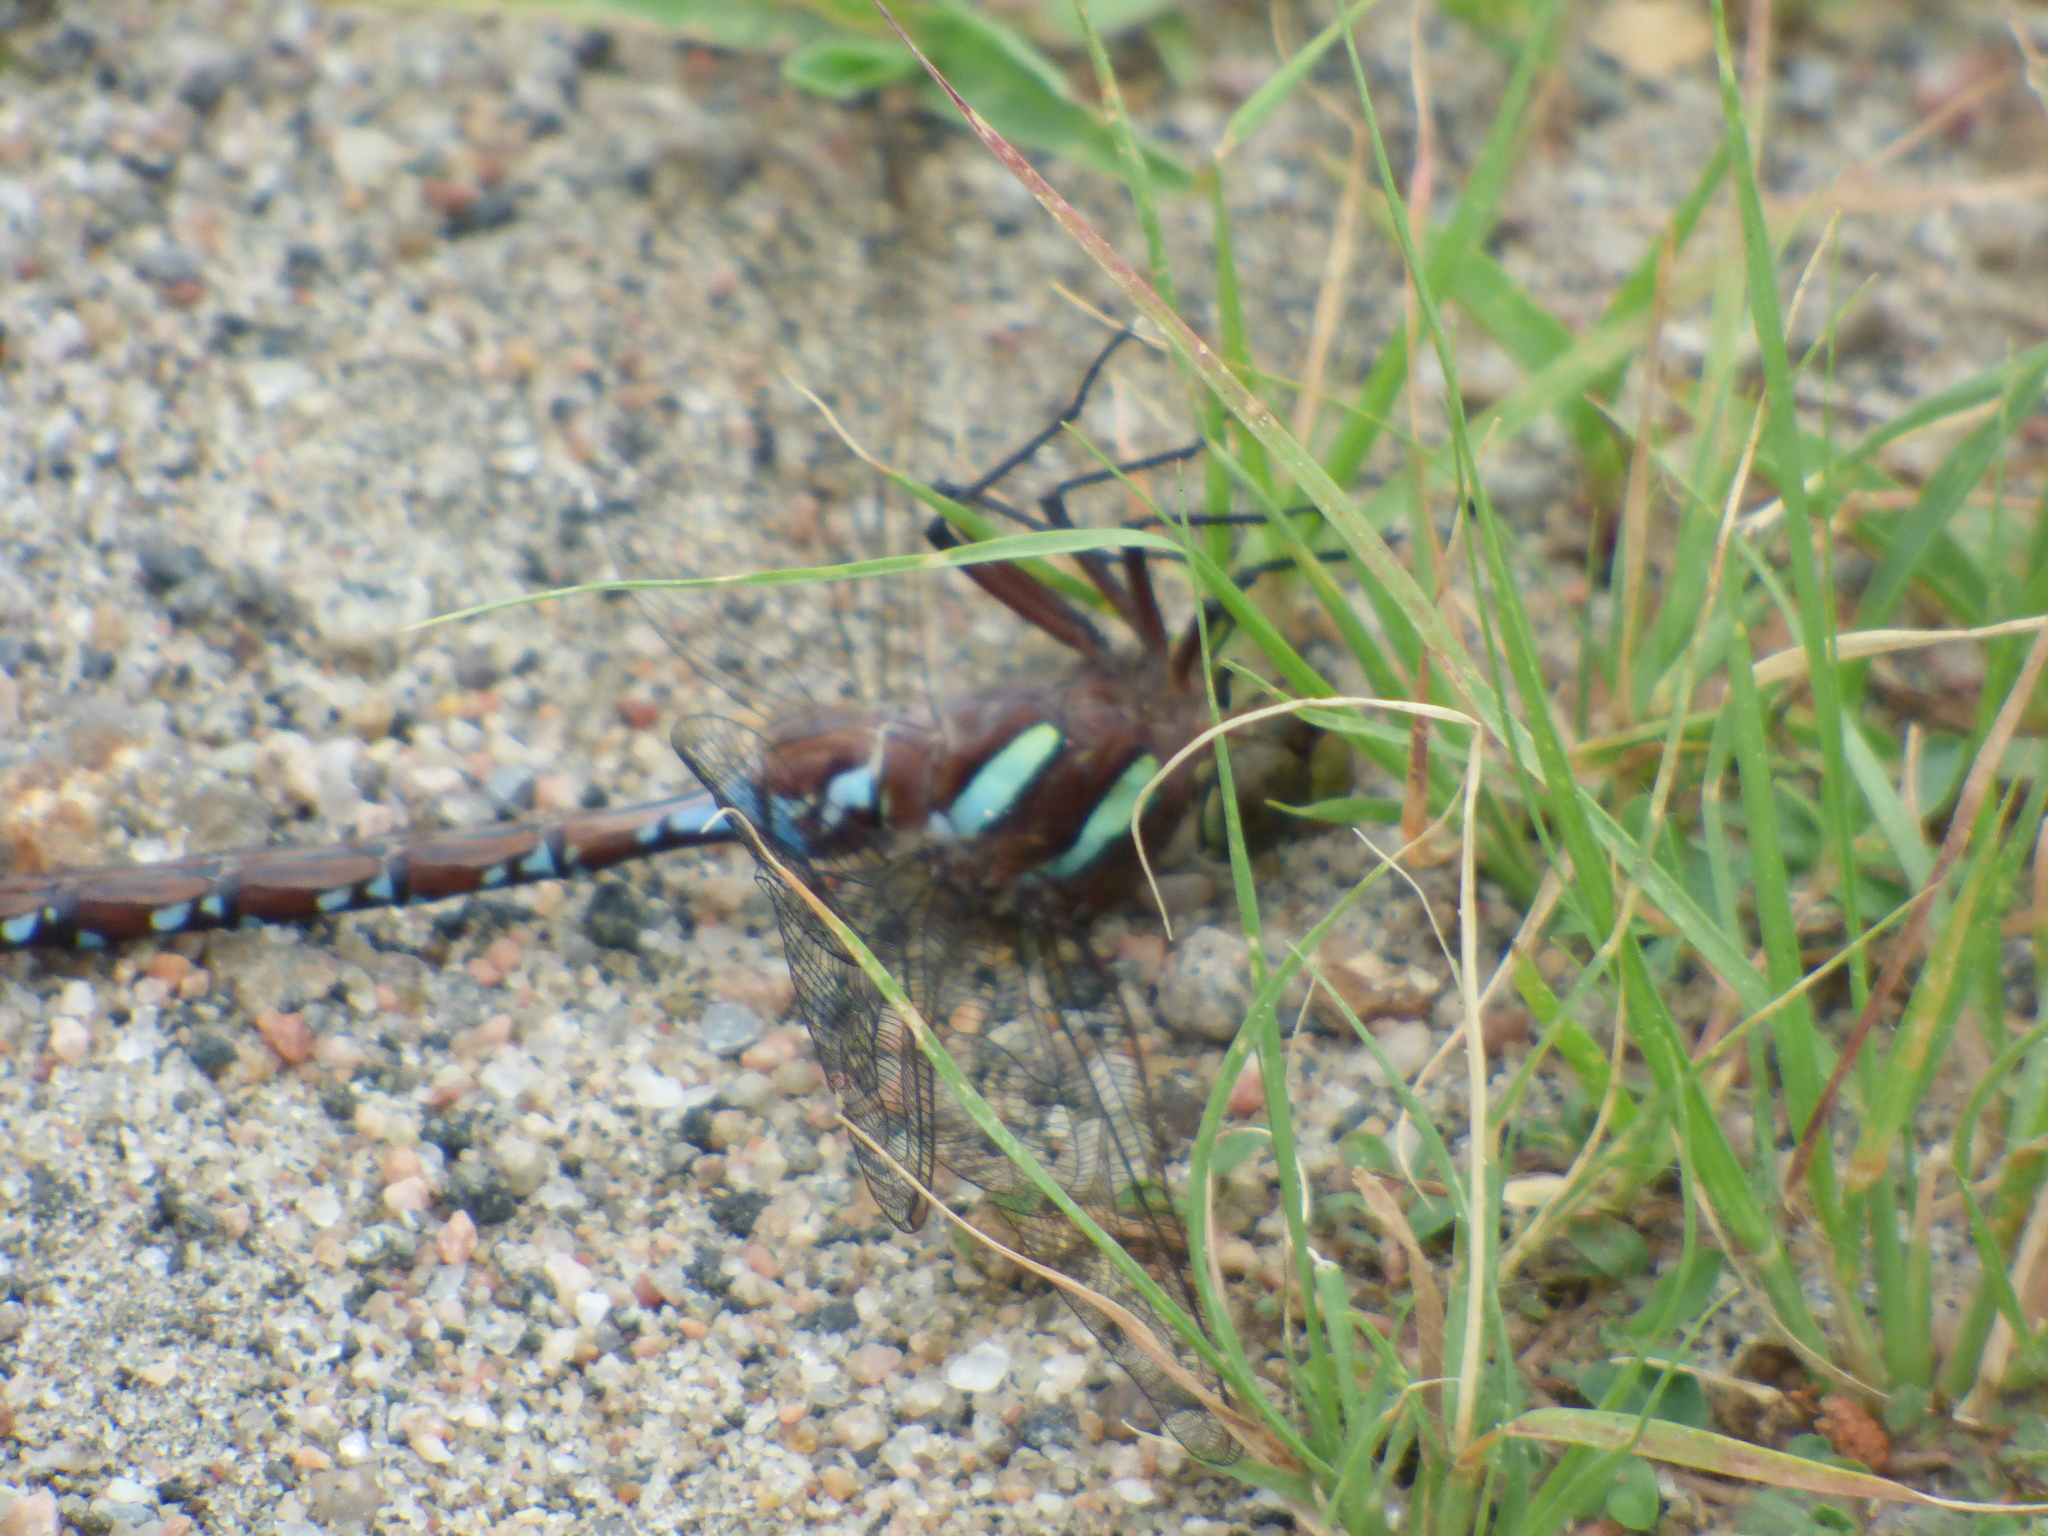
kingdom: Animalia
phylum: Arthropoda
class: Insecta
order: Odonata
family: Aeshnidae
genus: Aeshna
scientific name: Aeshna tuberculifera
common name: Aeschne à tubercules
